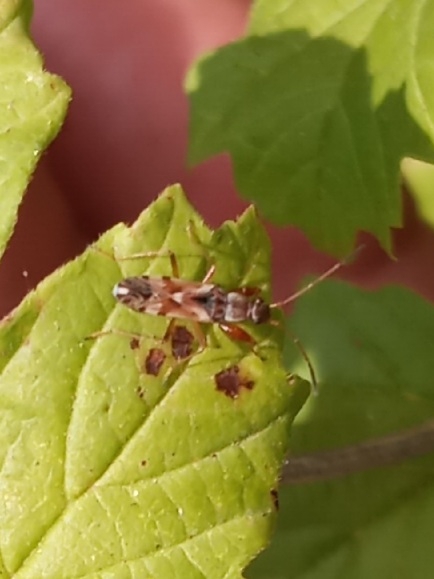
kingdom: Animalia
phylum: Arthropoda
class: Insecta
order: Hemiptera
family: Rhyparochromidae
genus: Neopamera
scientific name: Neopamera bilobata
